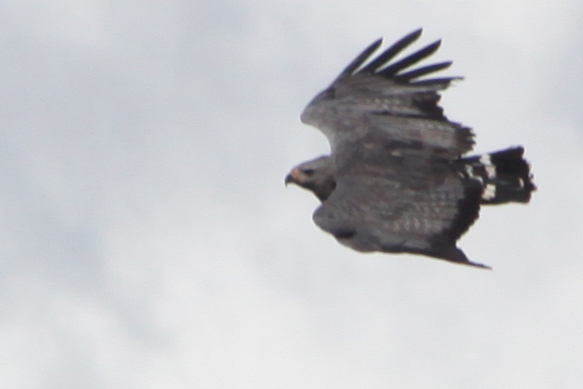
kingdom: Animalia
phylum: Chordata
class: Aves
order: Accipitriformes
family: Accipitridae
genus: Harpyhaliaetus
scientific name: Harpyhaliaetus coronatus
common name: Crowned solitary eagle
